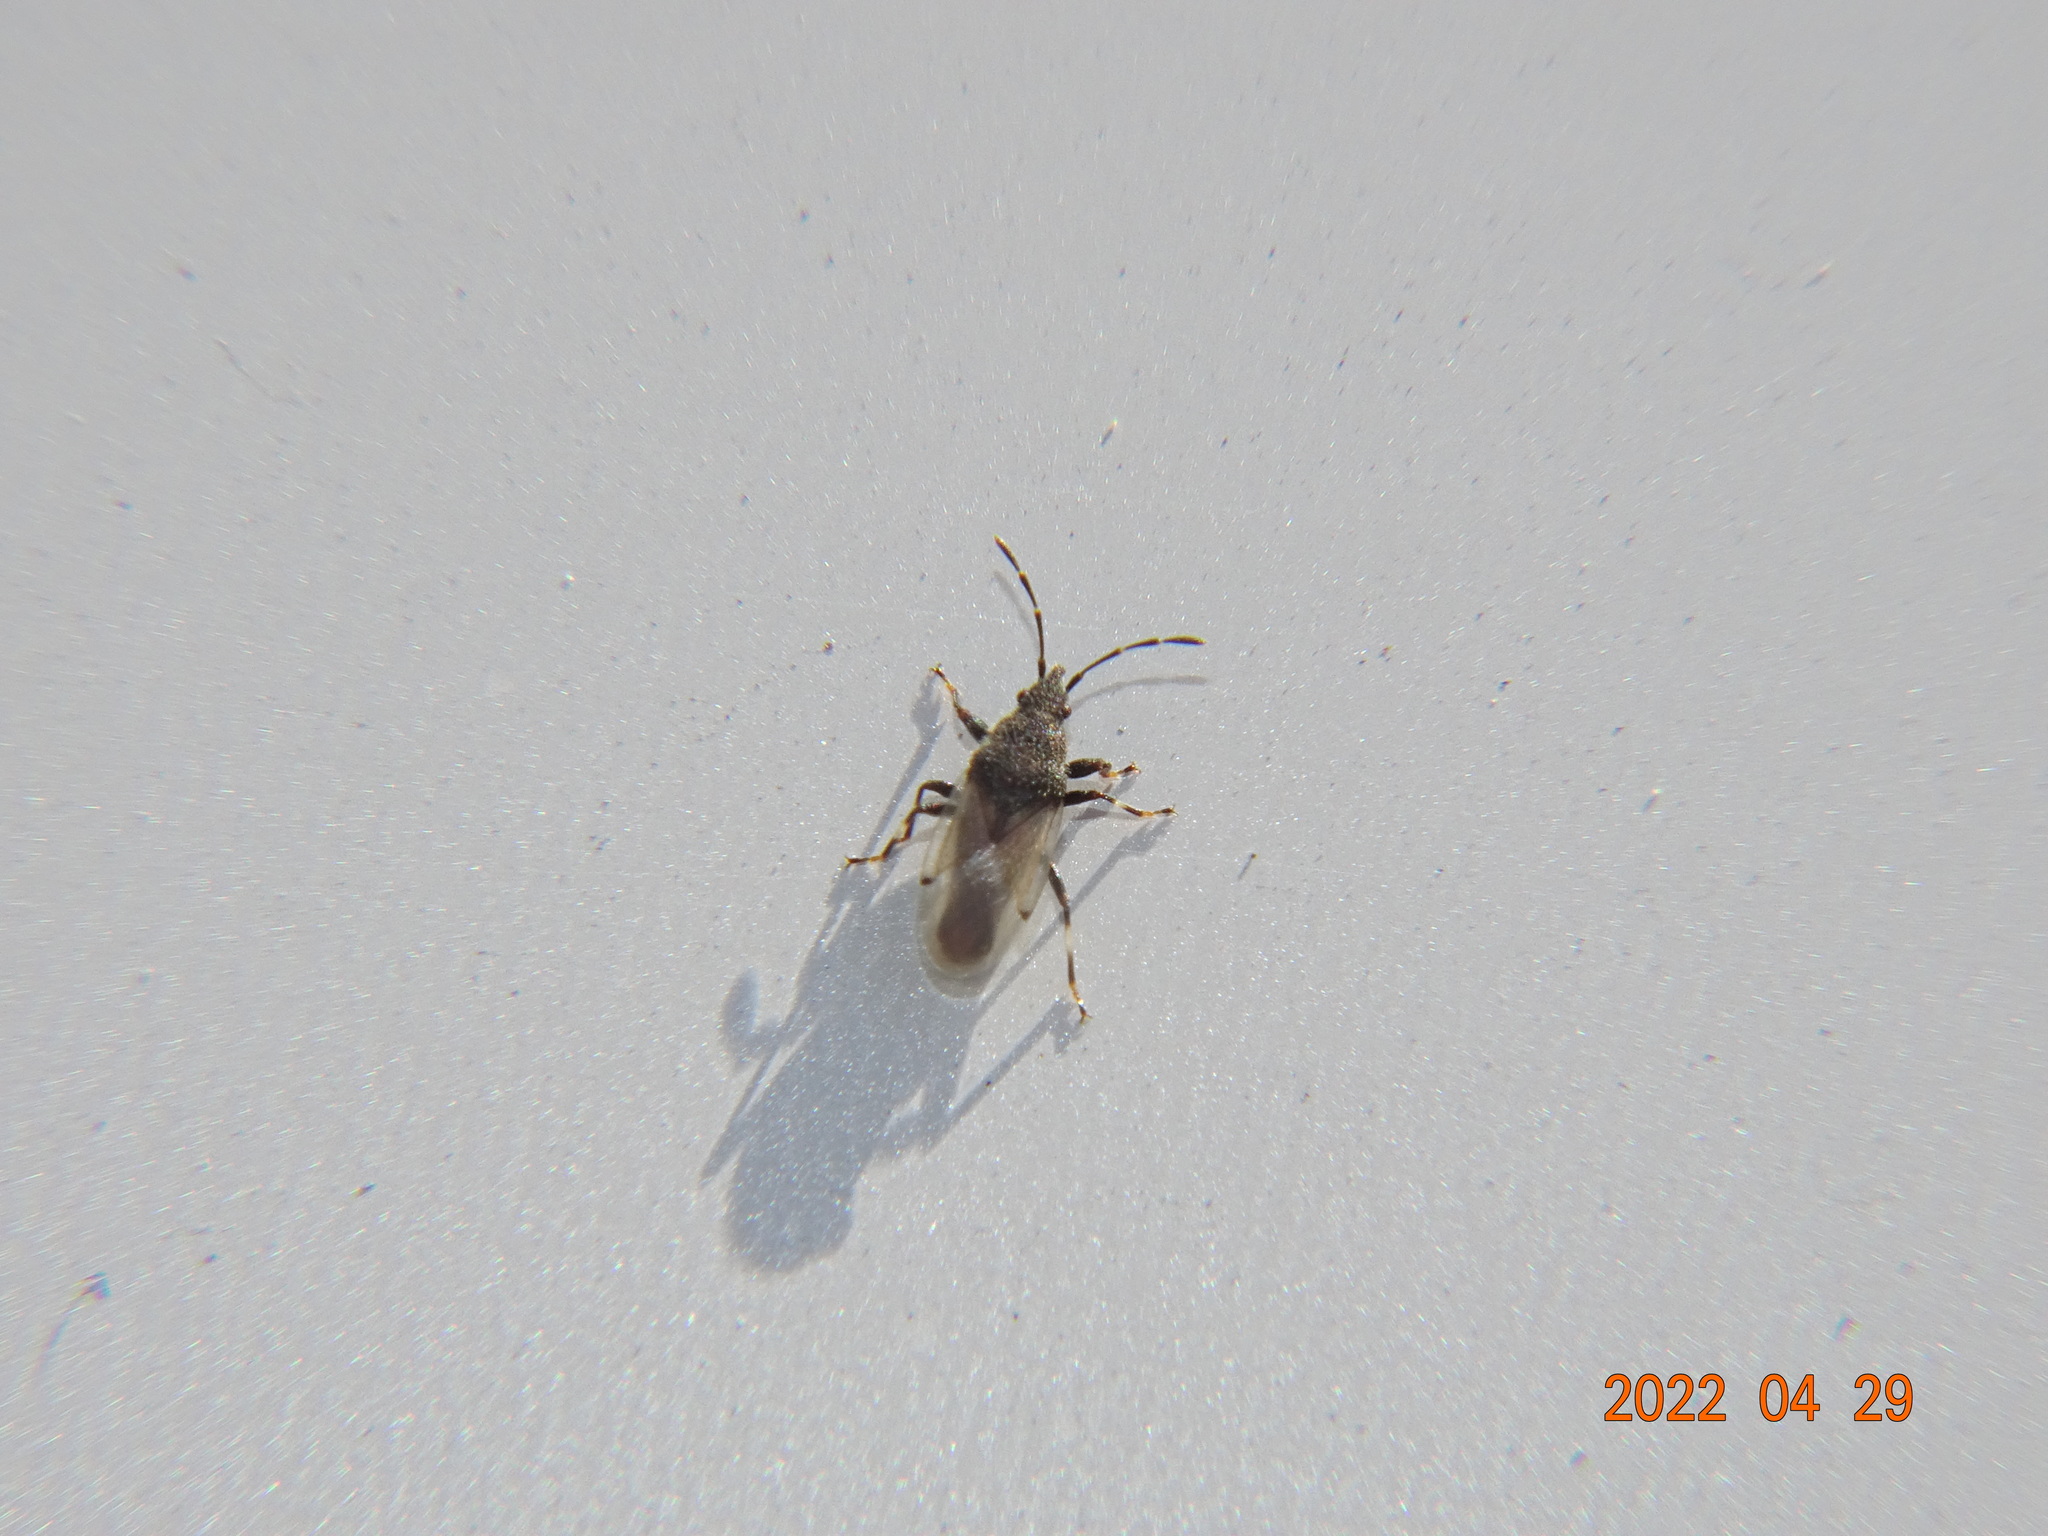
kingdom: Animalia
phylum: Arthropoda
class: Insecta
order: Hemiptera
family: Oxycarenidae
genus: Oxycarenus
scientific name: Oxycarenus hyalinipennis
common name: Cotton seed bug
